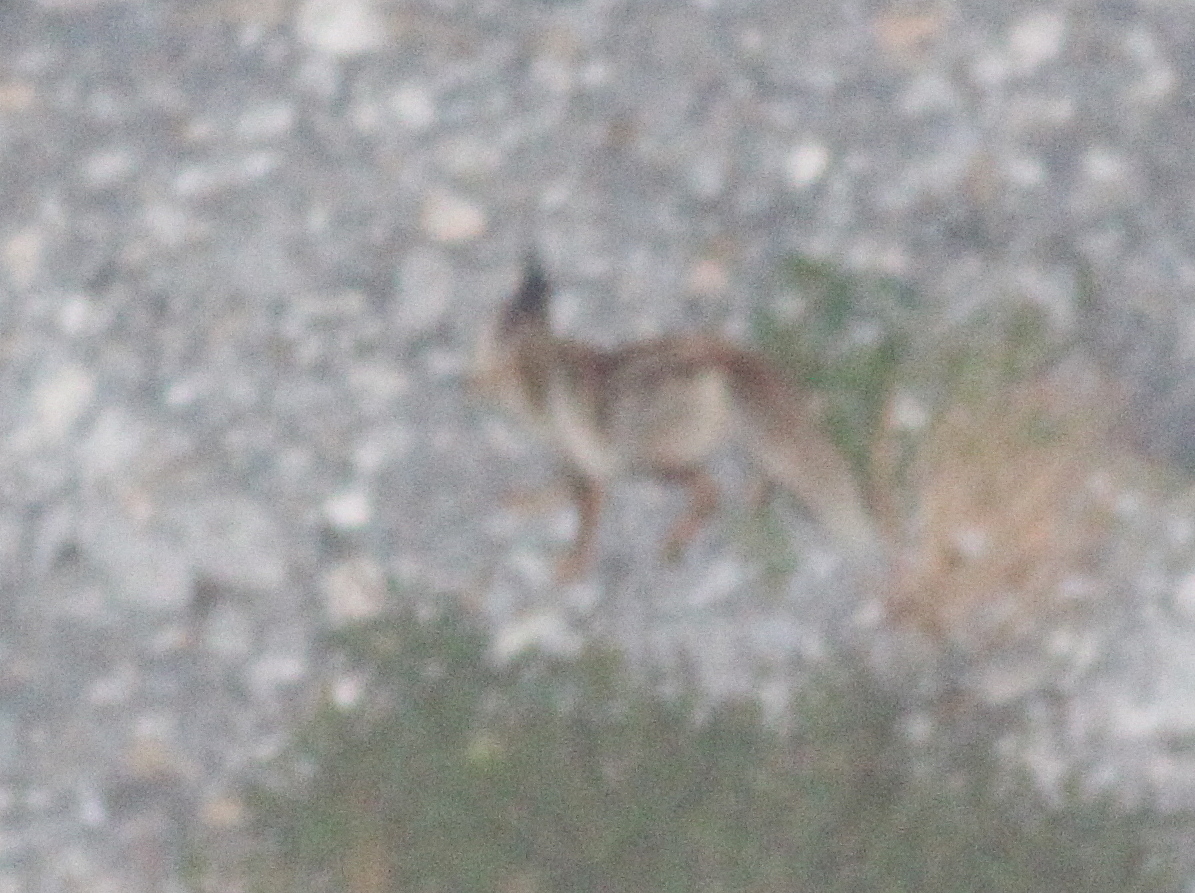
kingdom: Animalia
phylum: Chordata
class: Mammalia
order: Carnivora
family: Canidae
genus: Vulpes
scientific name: Vulpes vulpes
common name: Red fox
